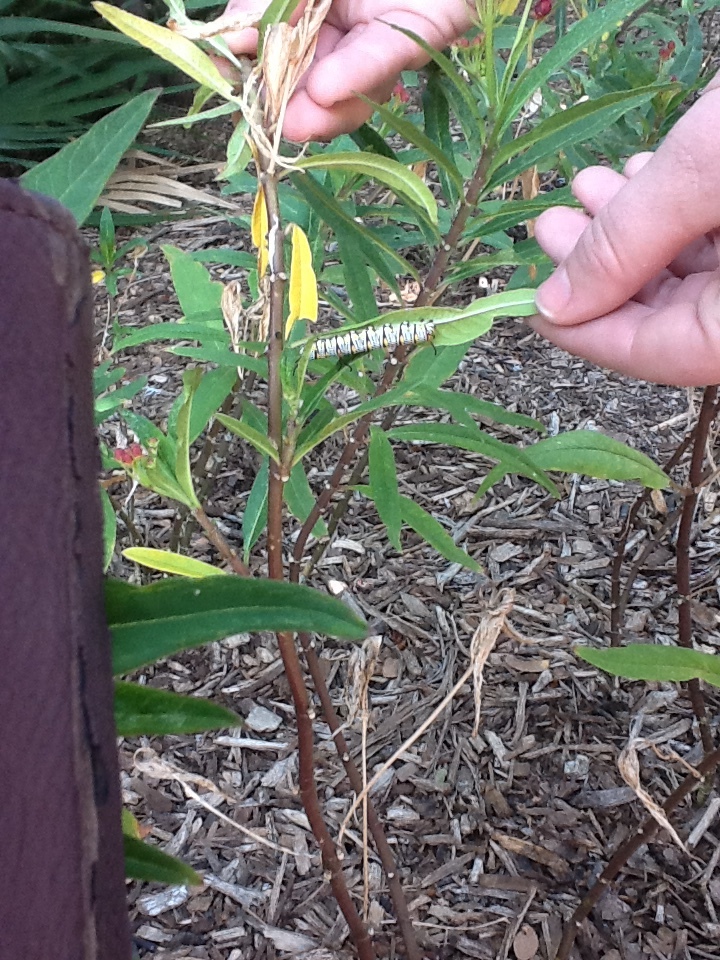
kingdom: Animalia
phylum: Arthropoda
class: Insecta
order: Lepidoptera
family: Nymphalidae
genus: Danaus
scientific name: Danaus gilippus
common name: Queen
